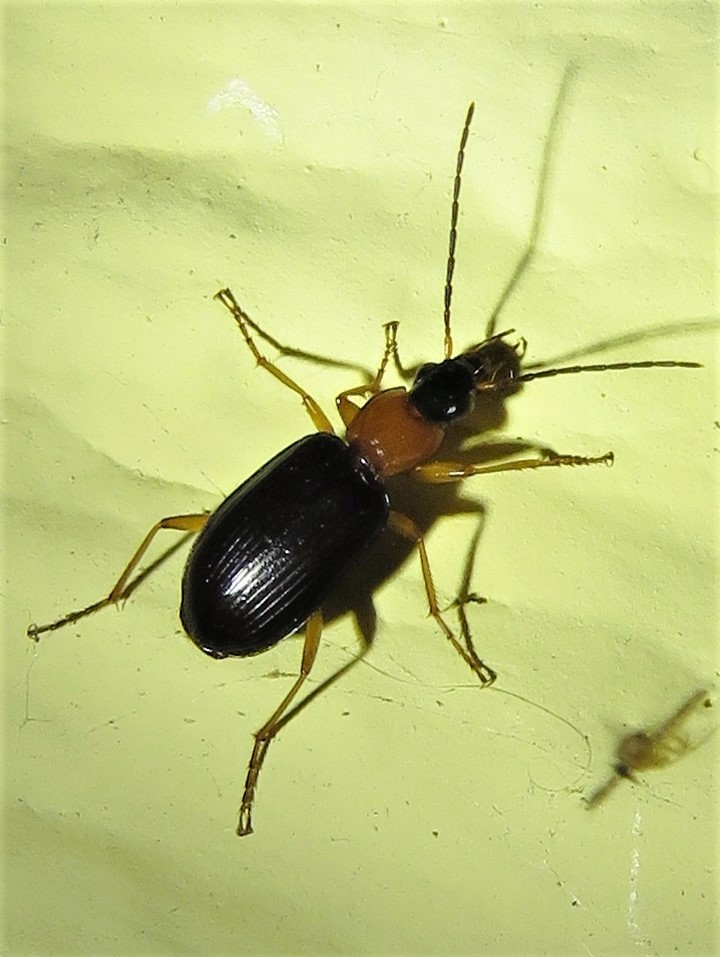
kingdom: Animalia
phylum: Arthropoda
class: Insecta
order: Coleoptera
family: Carabidae
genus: Agonum
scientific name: Agonum decorum
